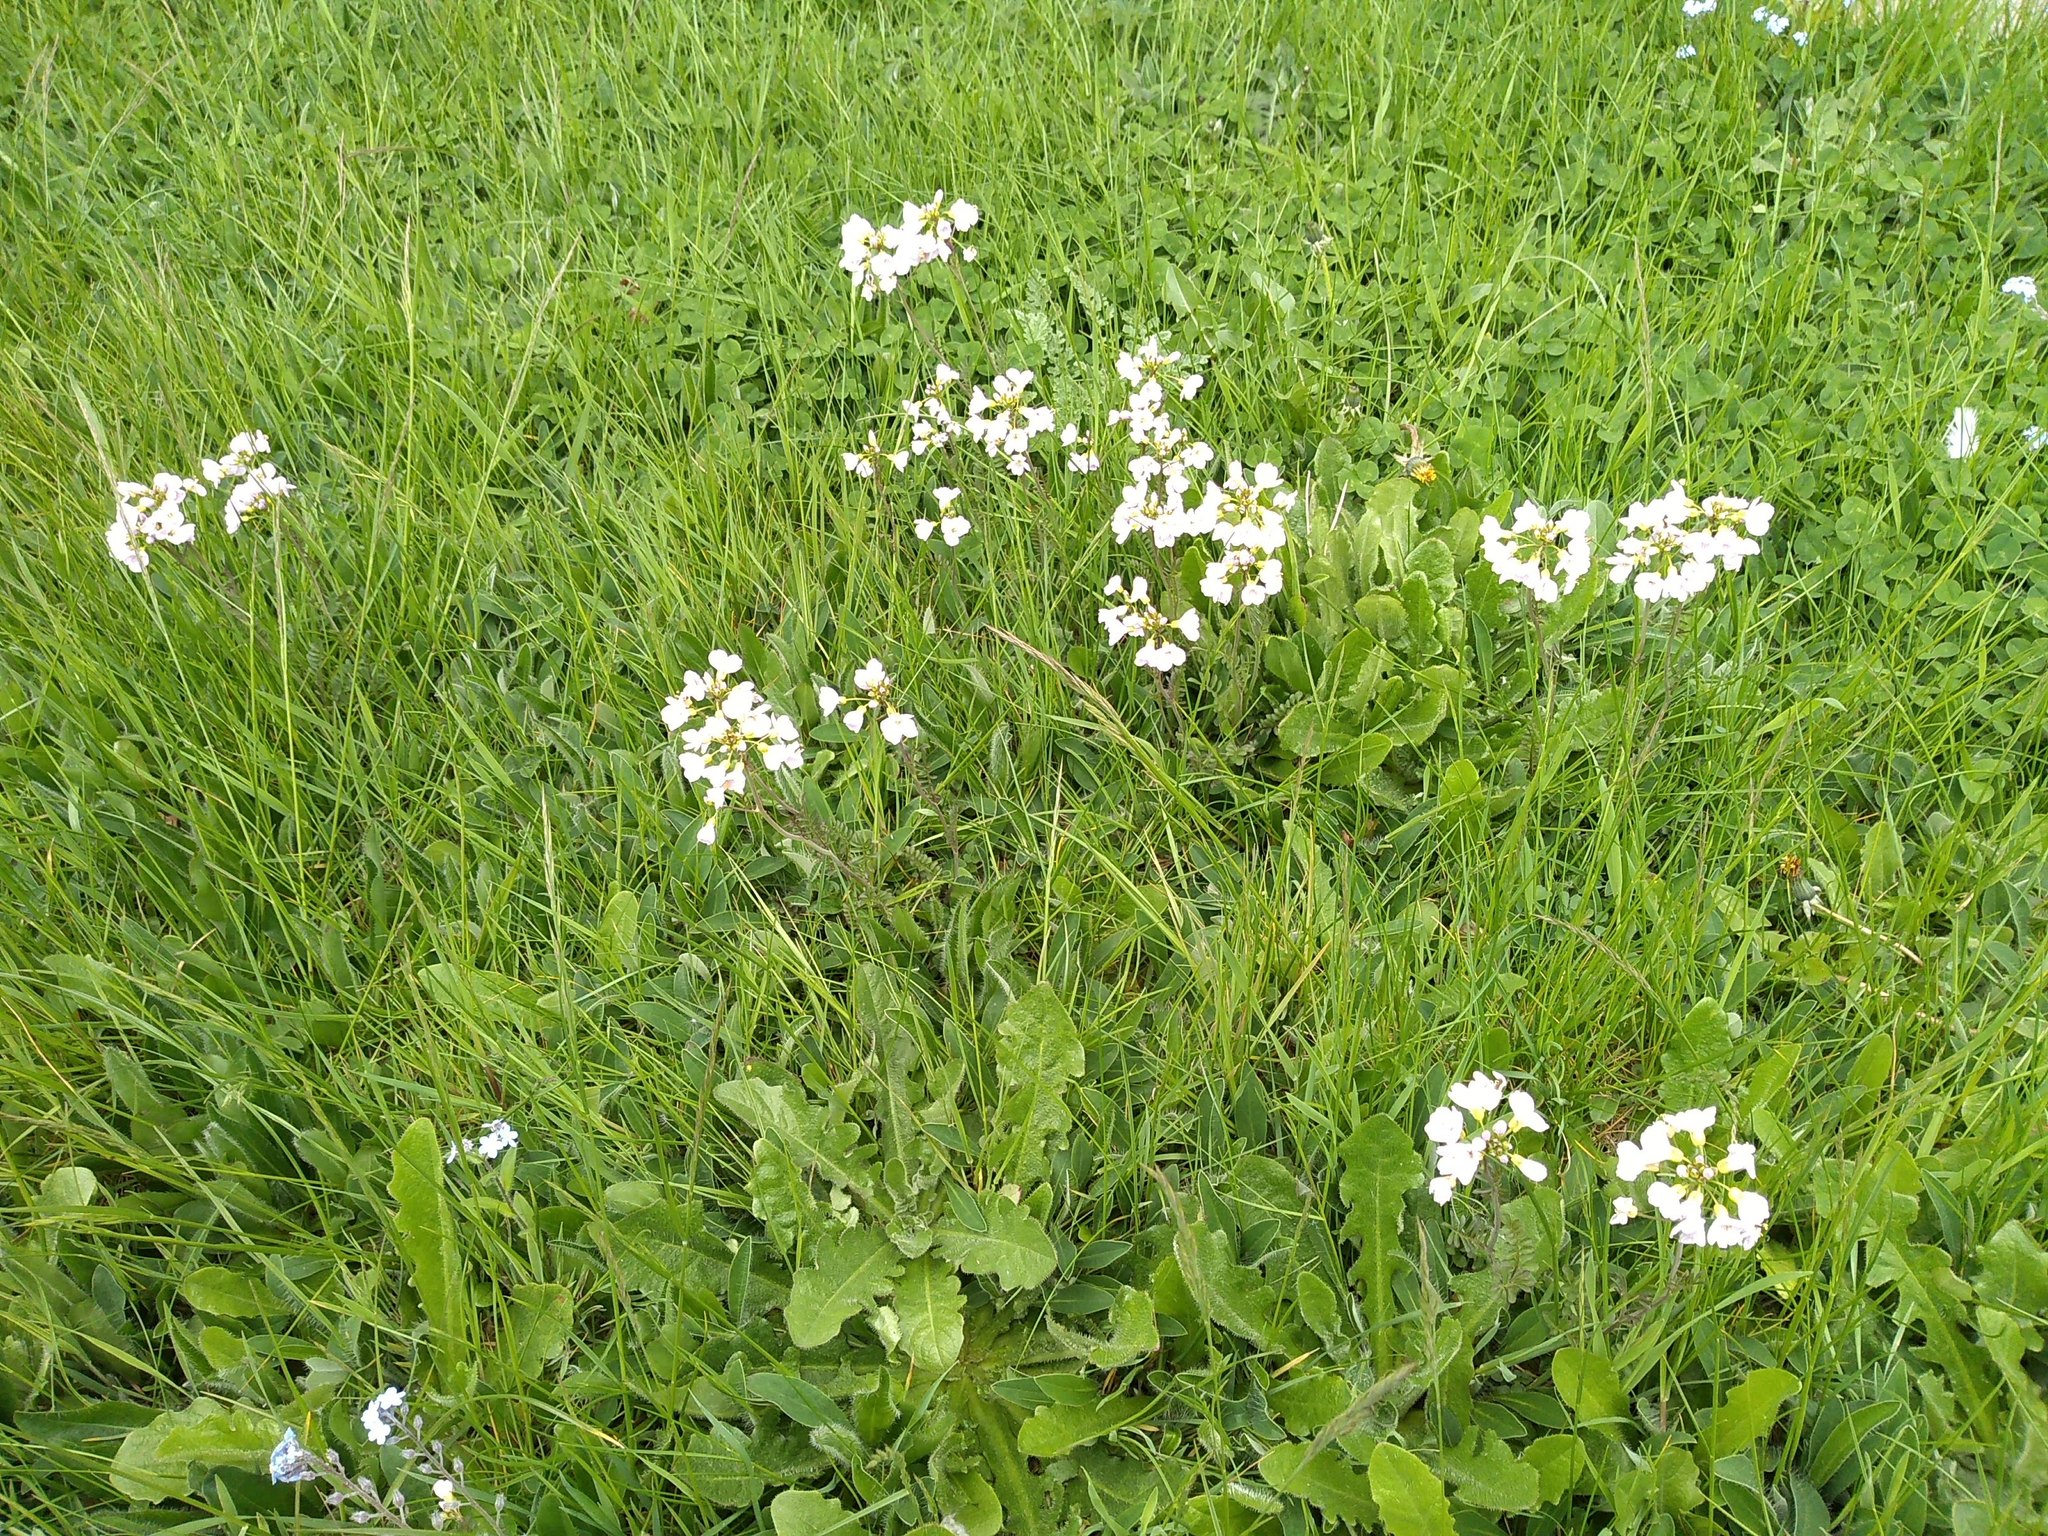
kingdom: Plantae
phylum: Tracheophyta
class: Magnoliopsida
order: Brassicales
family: Brassicaceae
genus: Cardamine
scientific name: Cardamine pratensis
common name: Cuckoo flower
